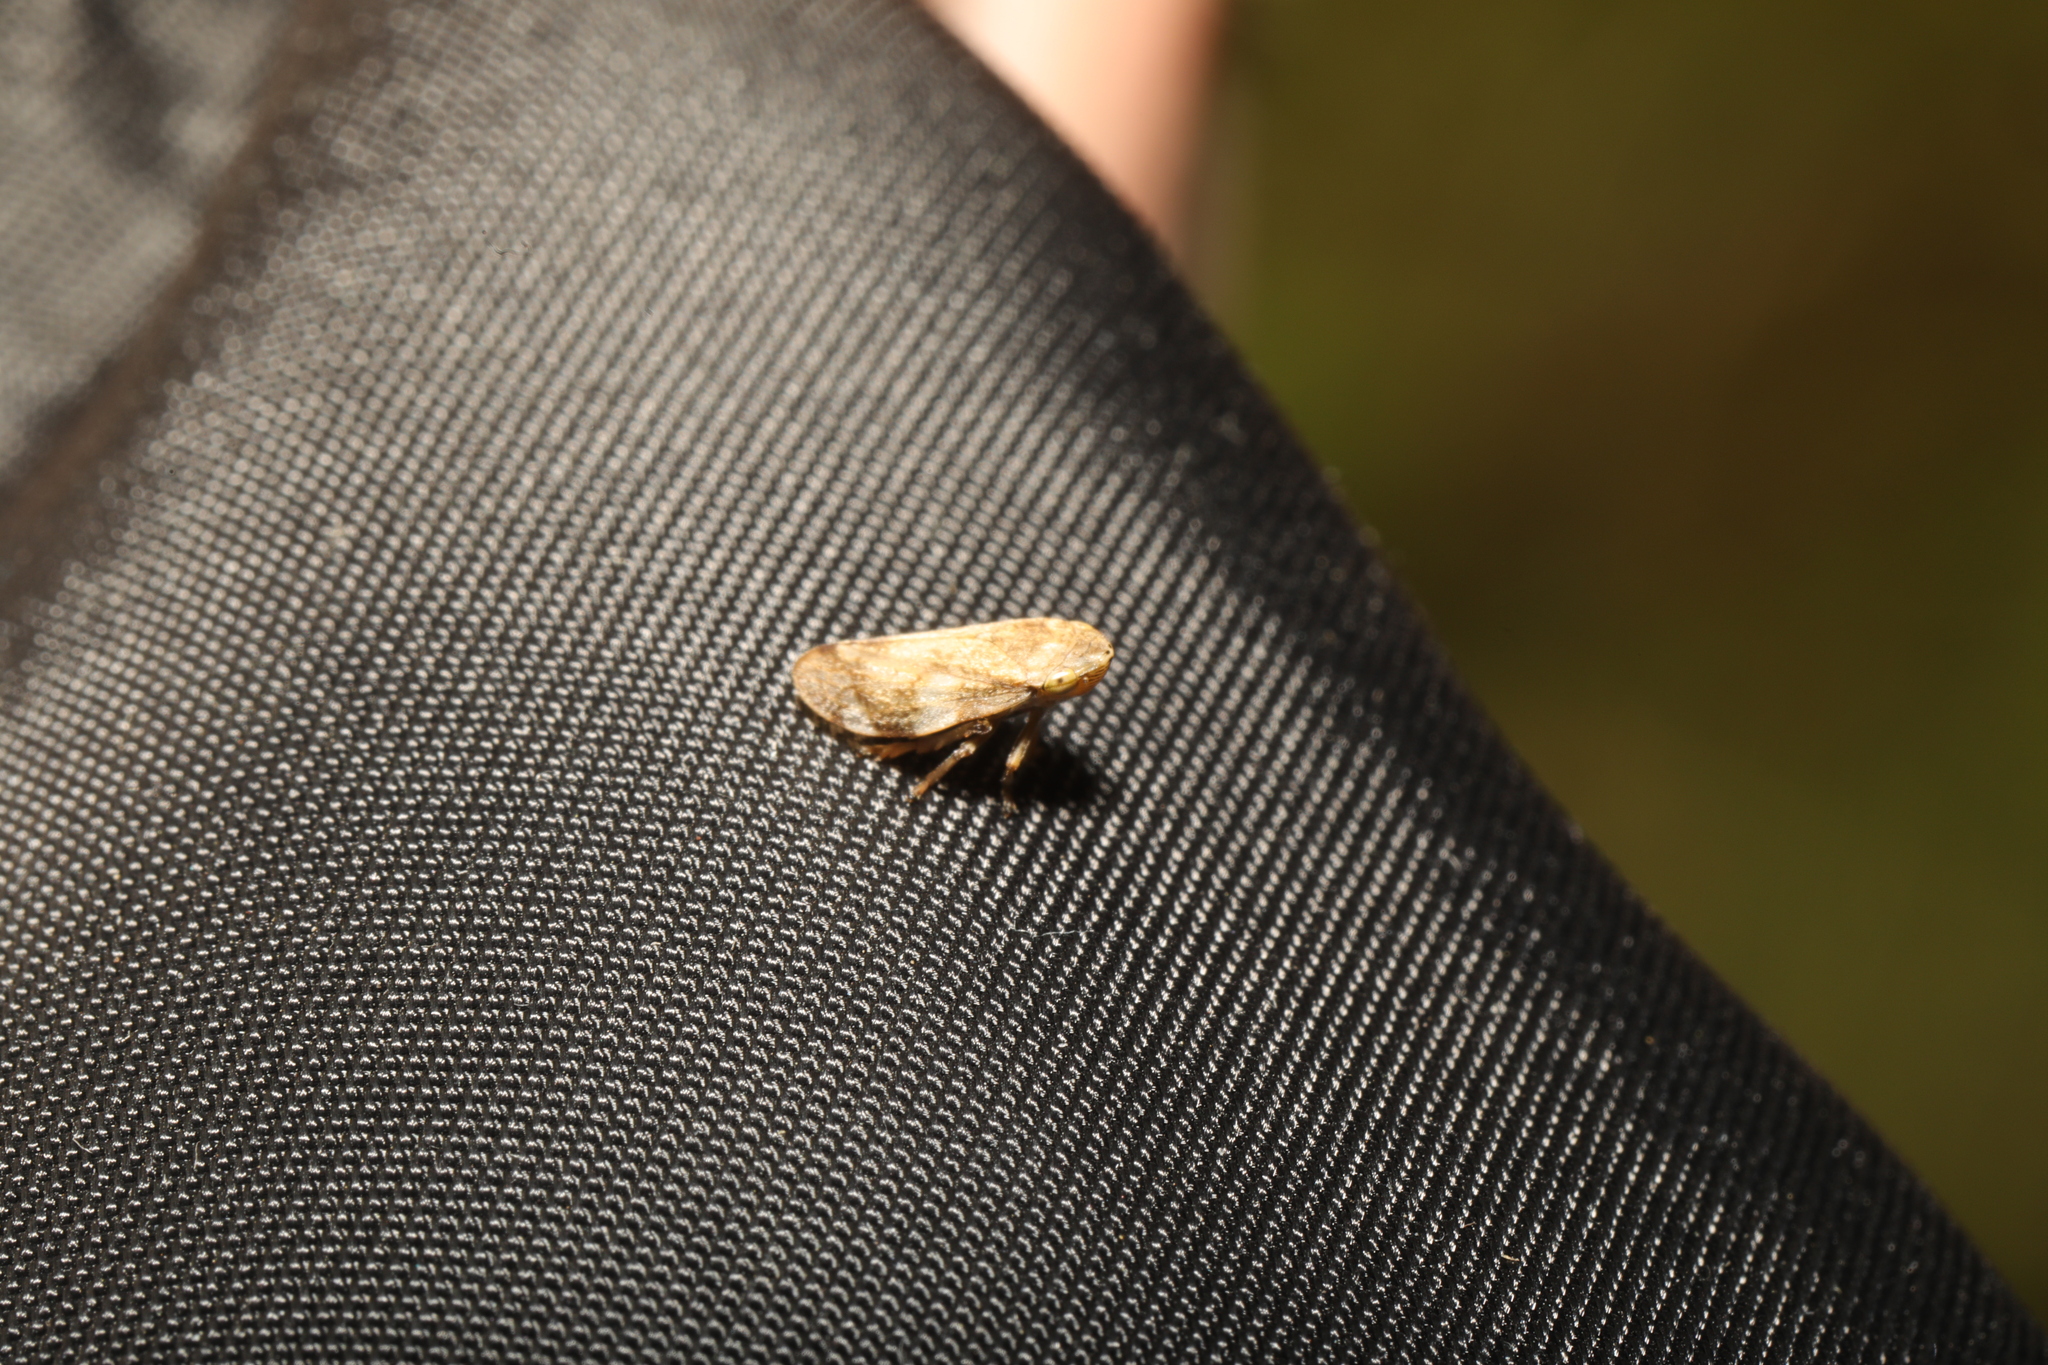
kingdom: Animalia
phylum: Arthropoda
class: Insecta
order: Hemiptera
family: Aphrophoridae
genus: Philaenus
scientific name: Philaenus spumarius
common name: Meadow spittlebug
